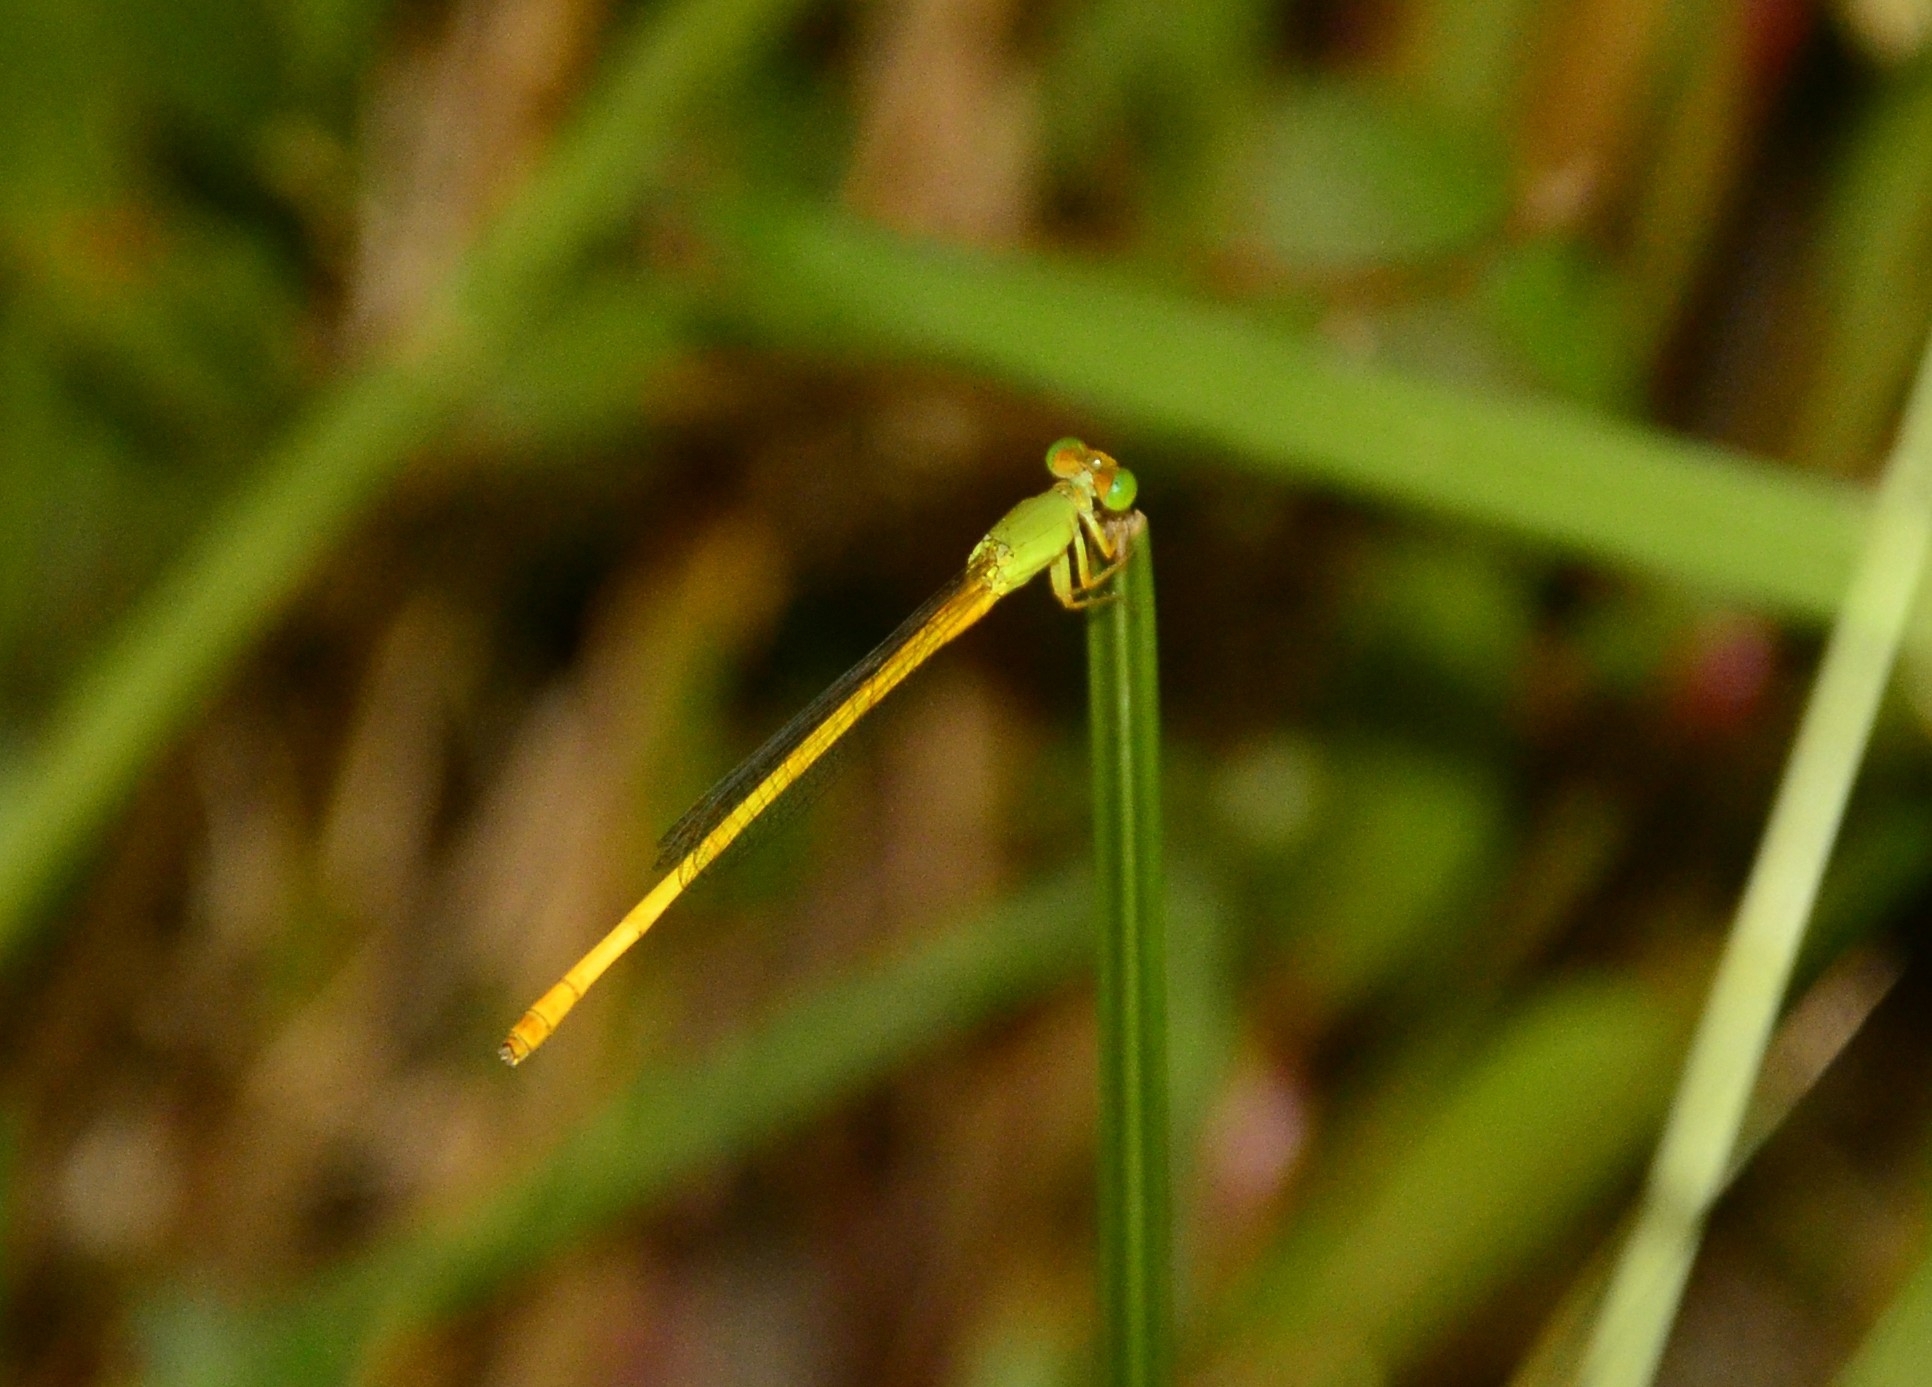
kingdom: Animalia
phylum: Arthropoda
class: Insecta
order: Odonata
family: Coenagrionidae
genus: Ceriagrion
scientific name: Ceriagrion coromandelianum
